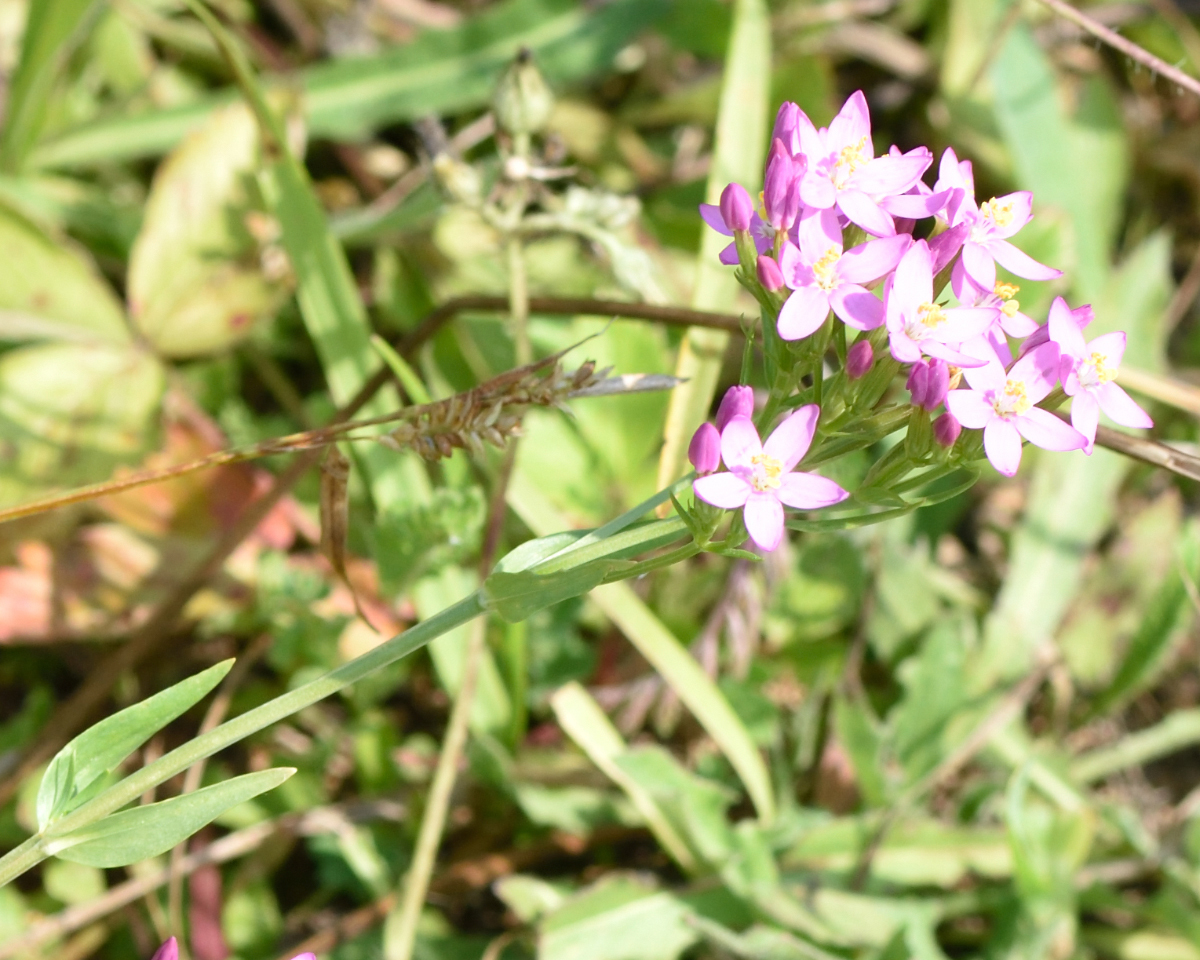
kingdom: Plantae
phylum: Tracheophyta
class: Magnoliopsida
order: Gentianales
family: Gentianaceae
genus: Centaurium
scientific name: Centaurium erythraea
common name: Common centaury
